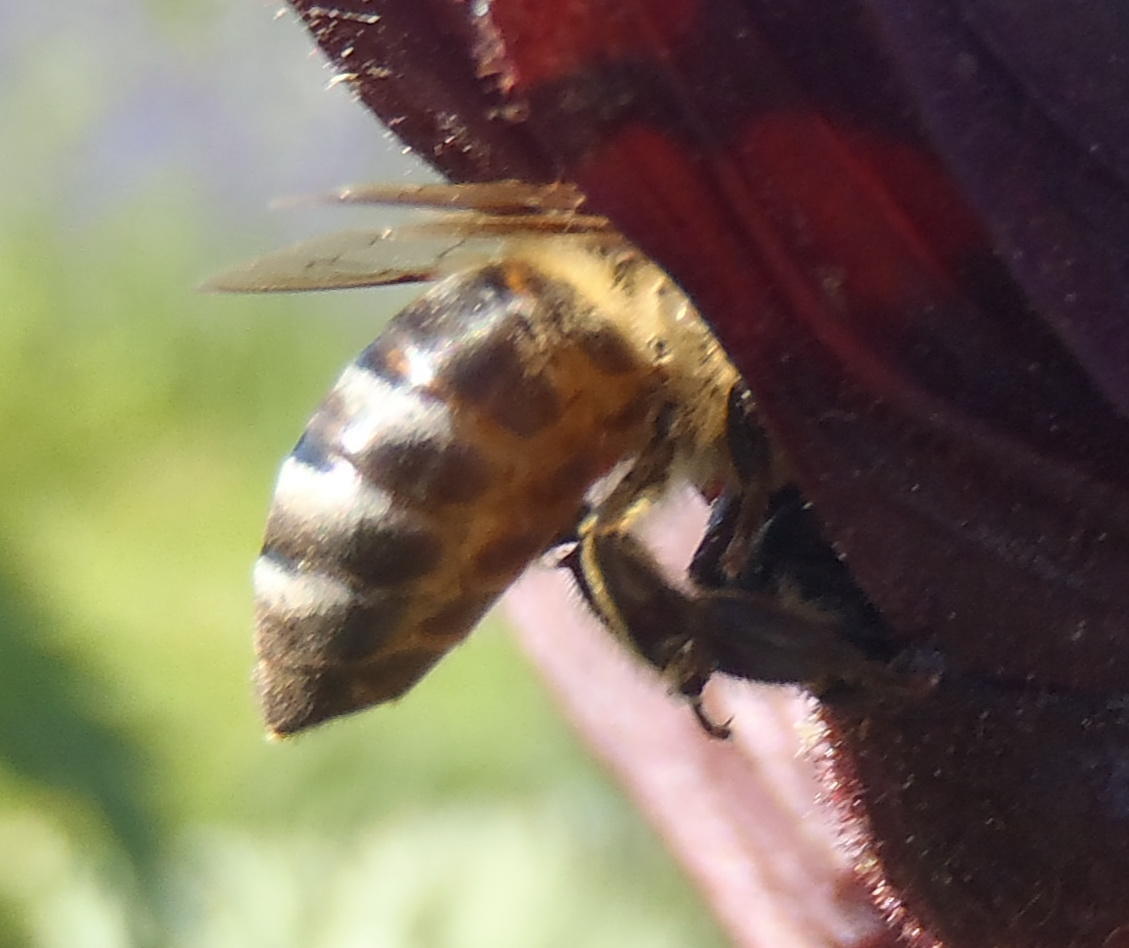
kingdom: Animalia
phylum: Arthropoda
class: Insecta
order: Hymenoptera
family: Apidae
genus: Apis
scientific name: Apis mellifera
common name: Honey bee
